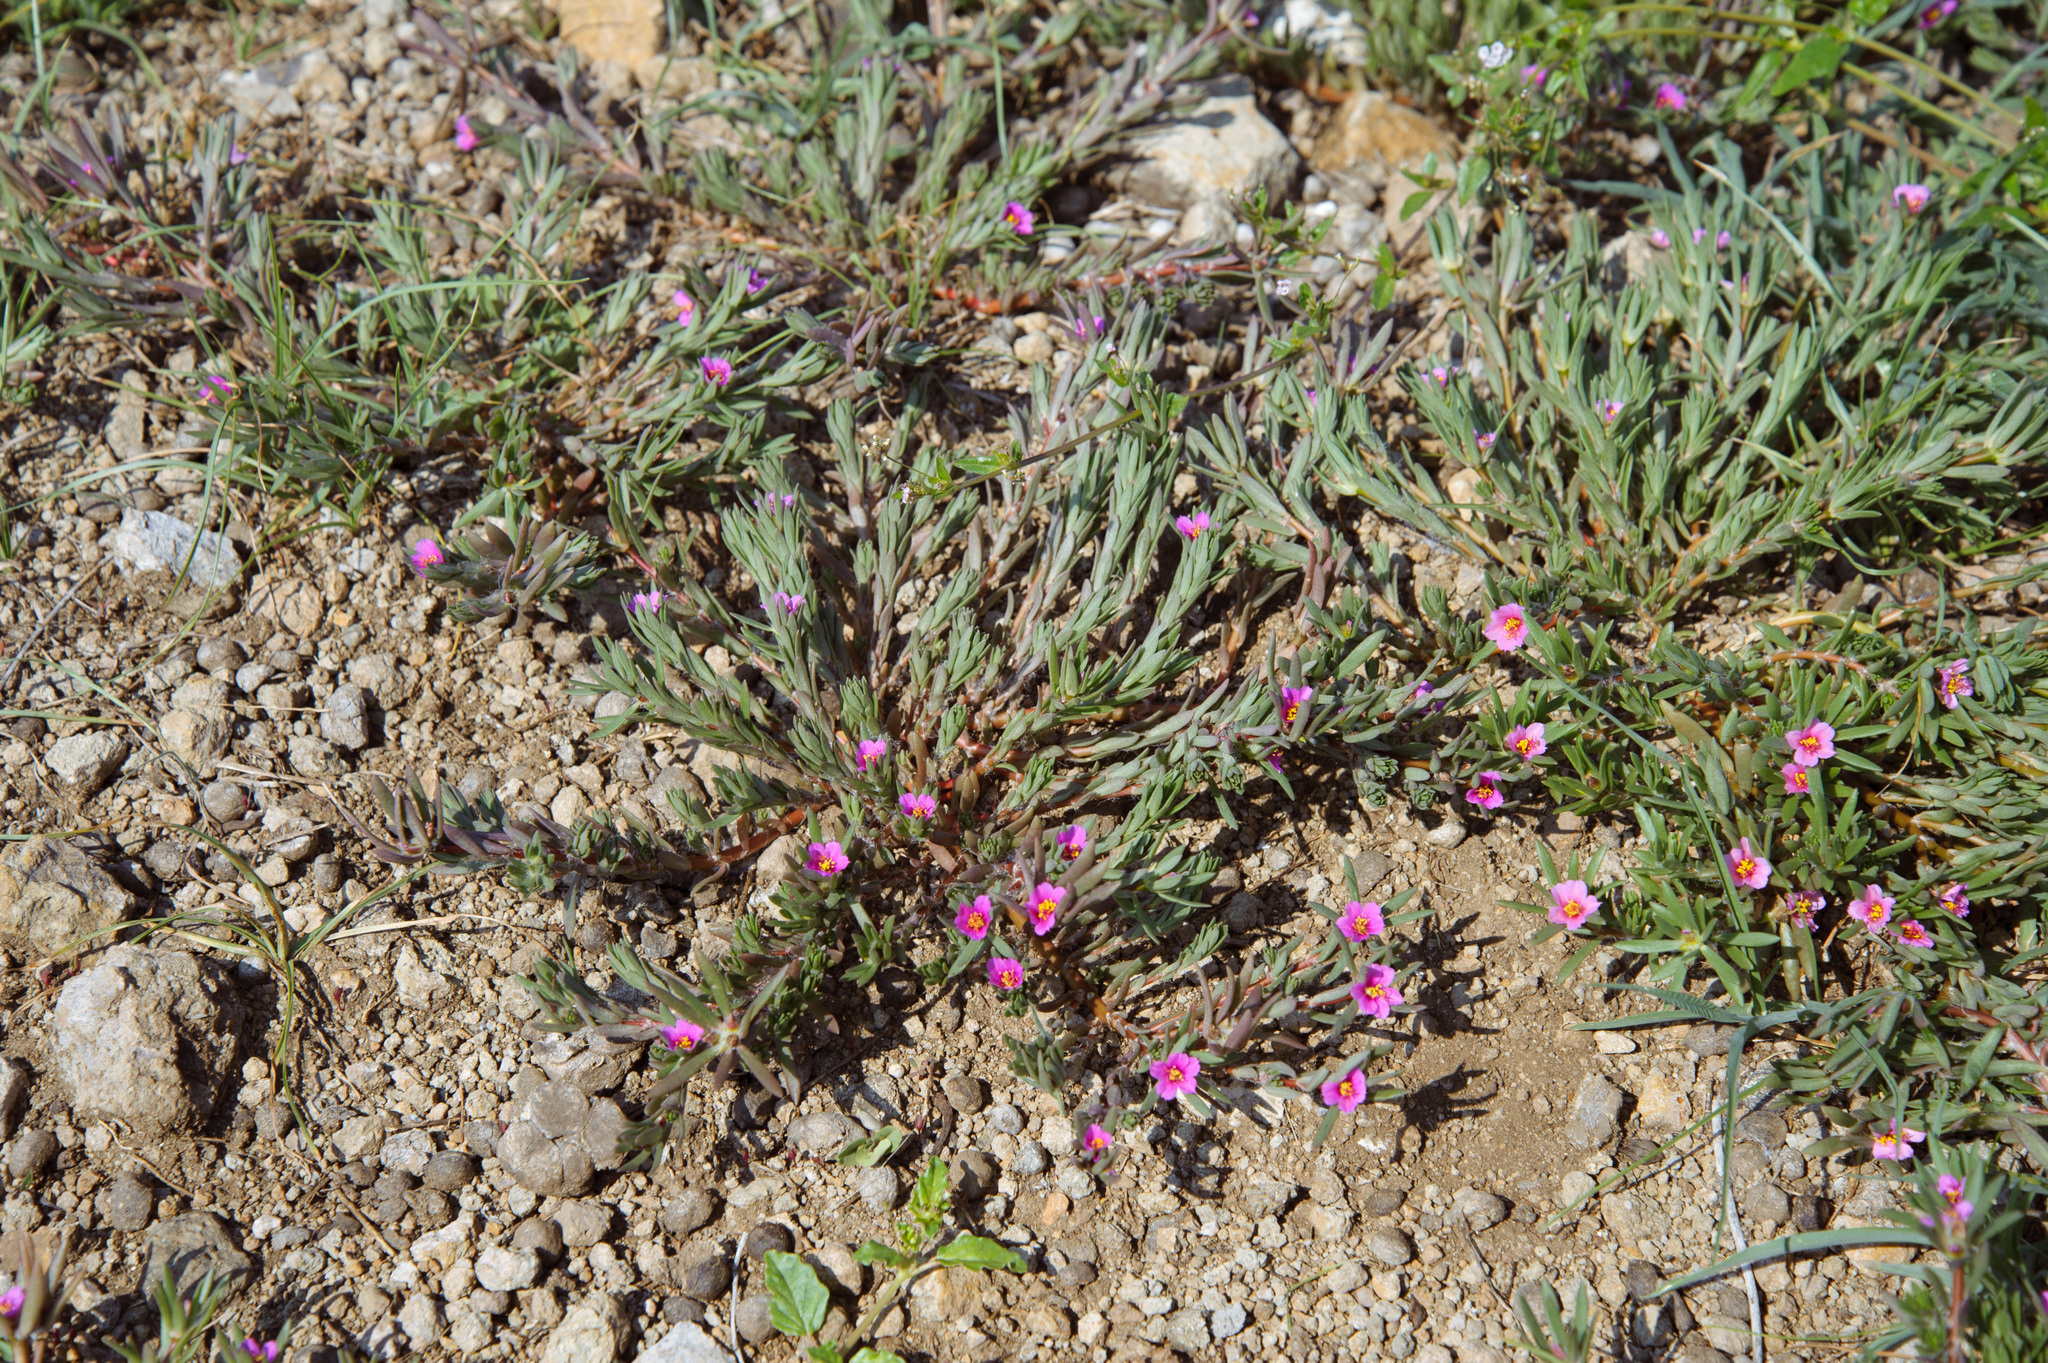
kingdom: Plantae
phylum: Tracheophyta
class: Magnoliopsida
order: Caryophyllales
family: Portulacaceae
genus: Portulaca
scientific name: Portulaca pilosa
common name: Kiss me quick
